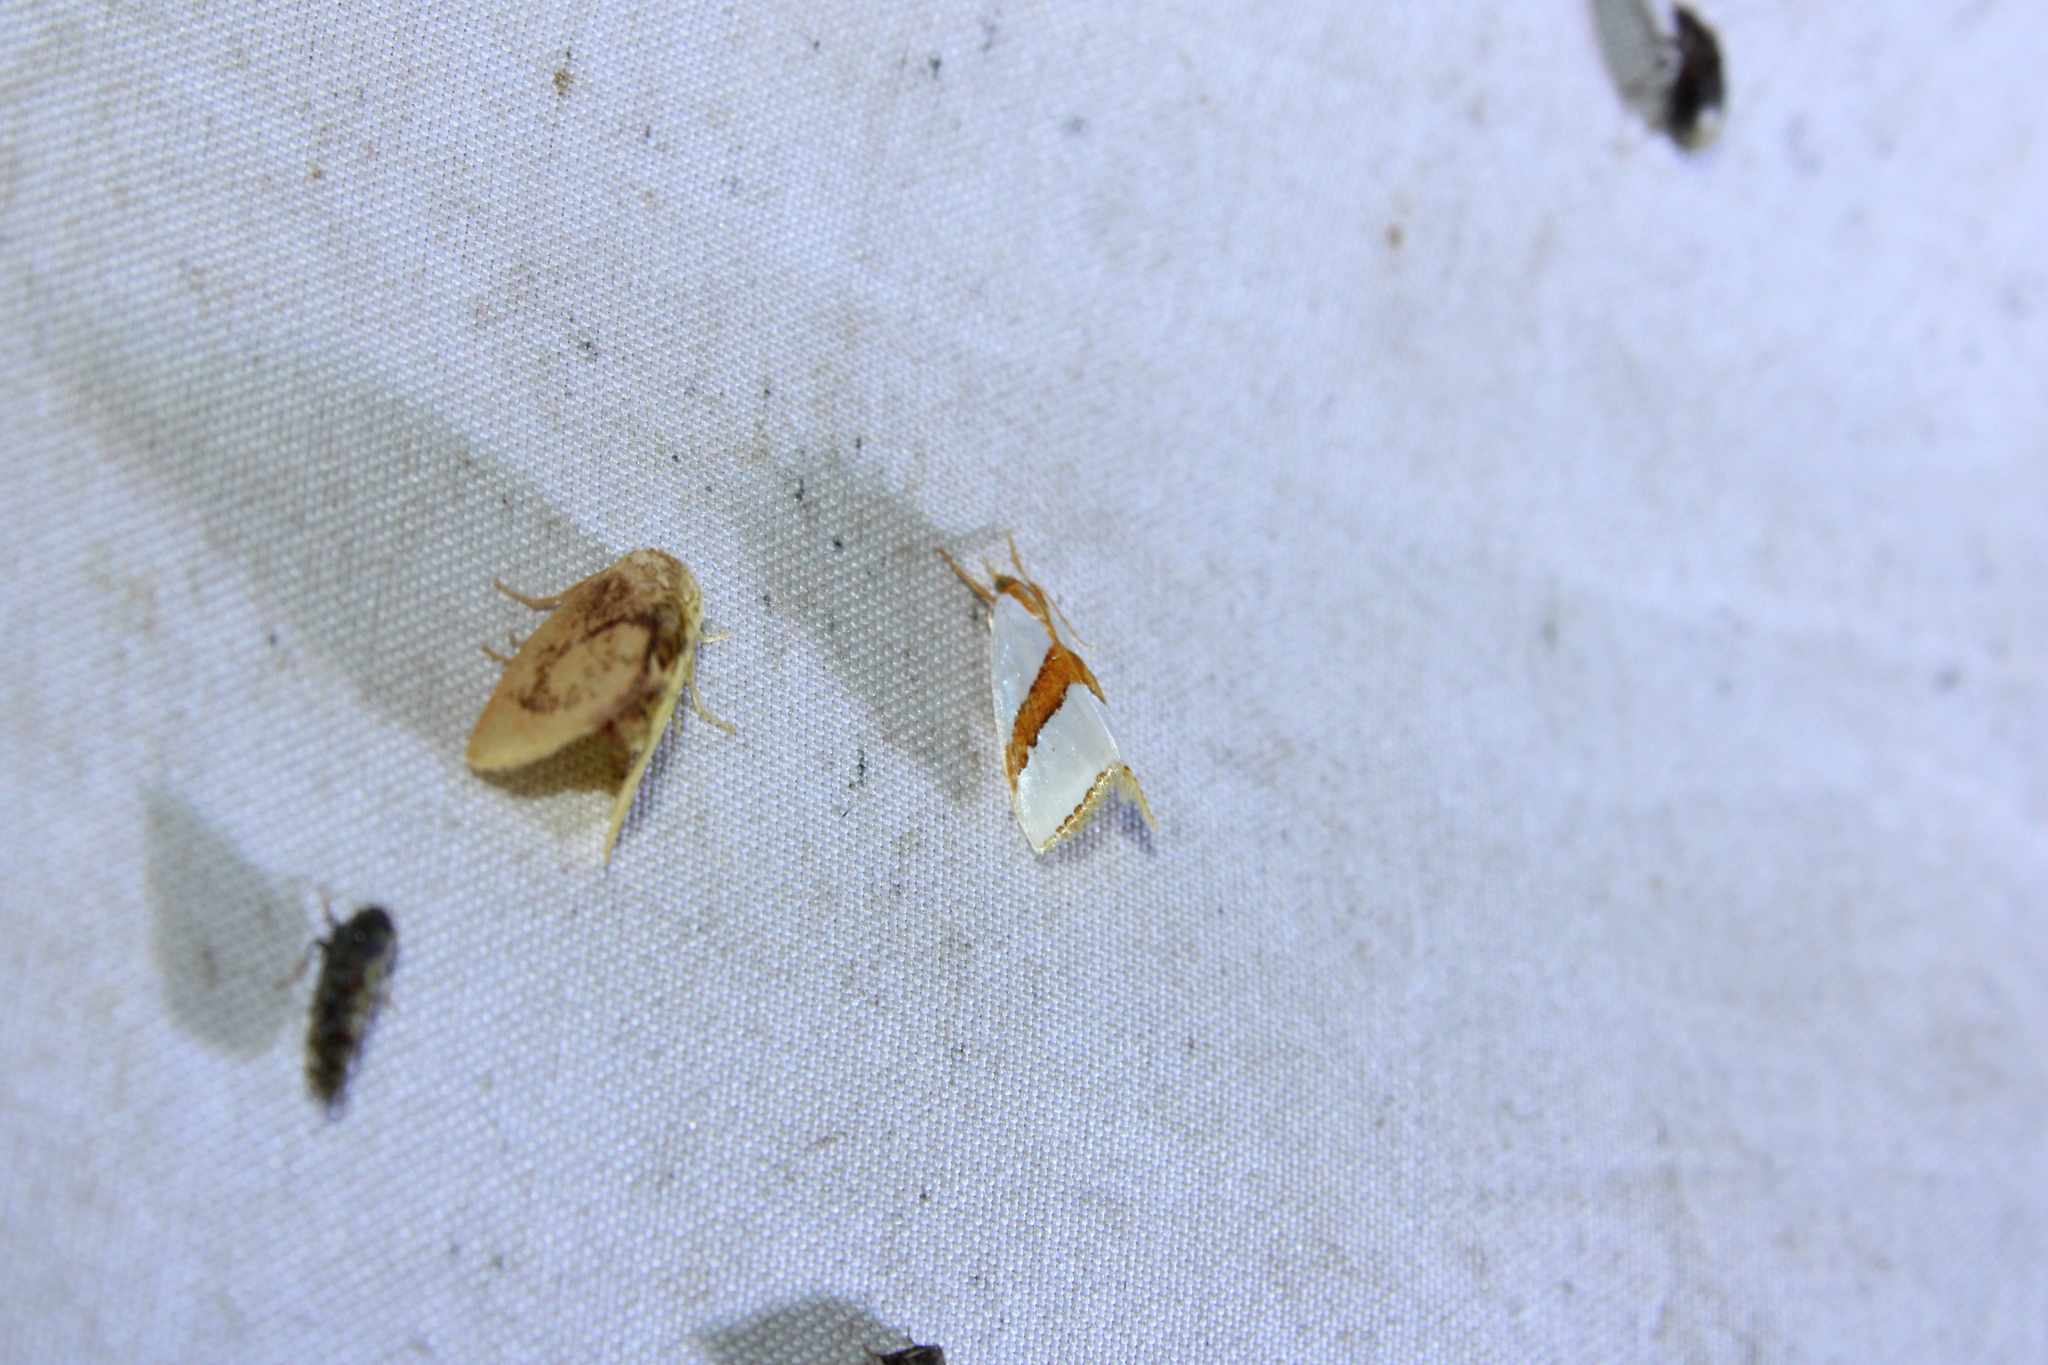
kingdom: Animalia
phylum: Arthropoda
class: Insecta
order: Lepidoptera
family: Crambidae
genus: Vaxi
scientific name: Vaxi critica
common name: Straight-lined vaxi moth
